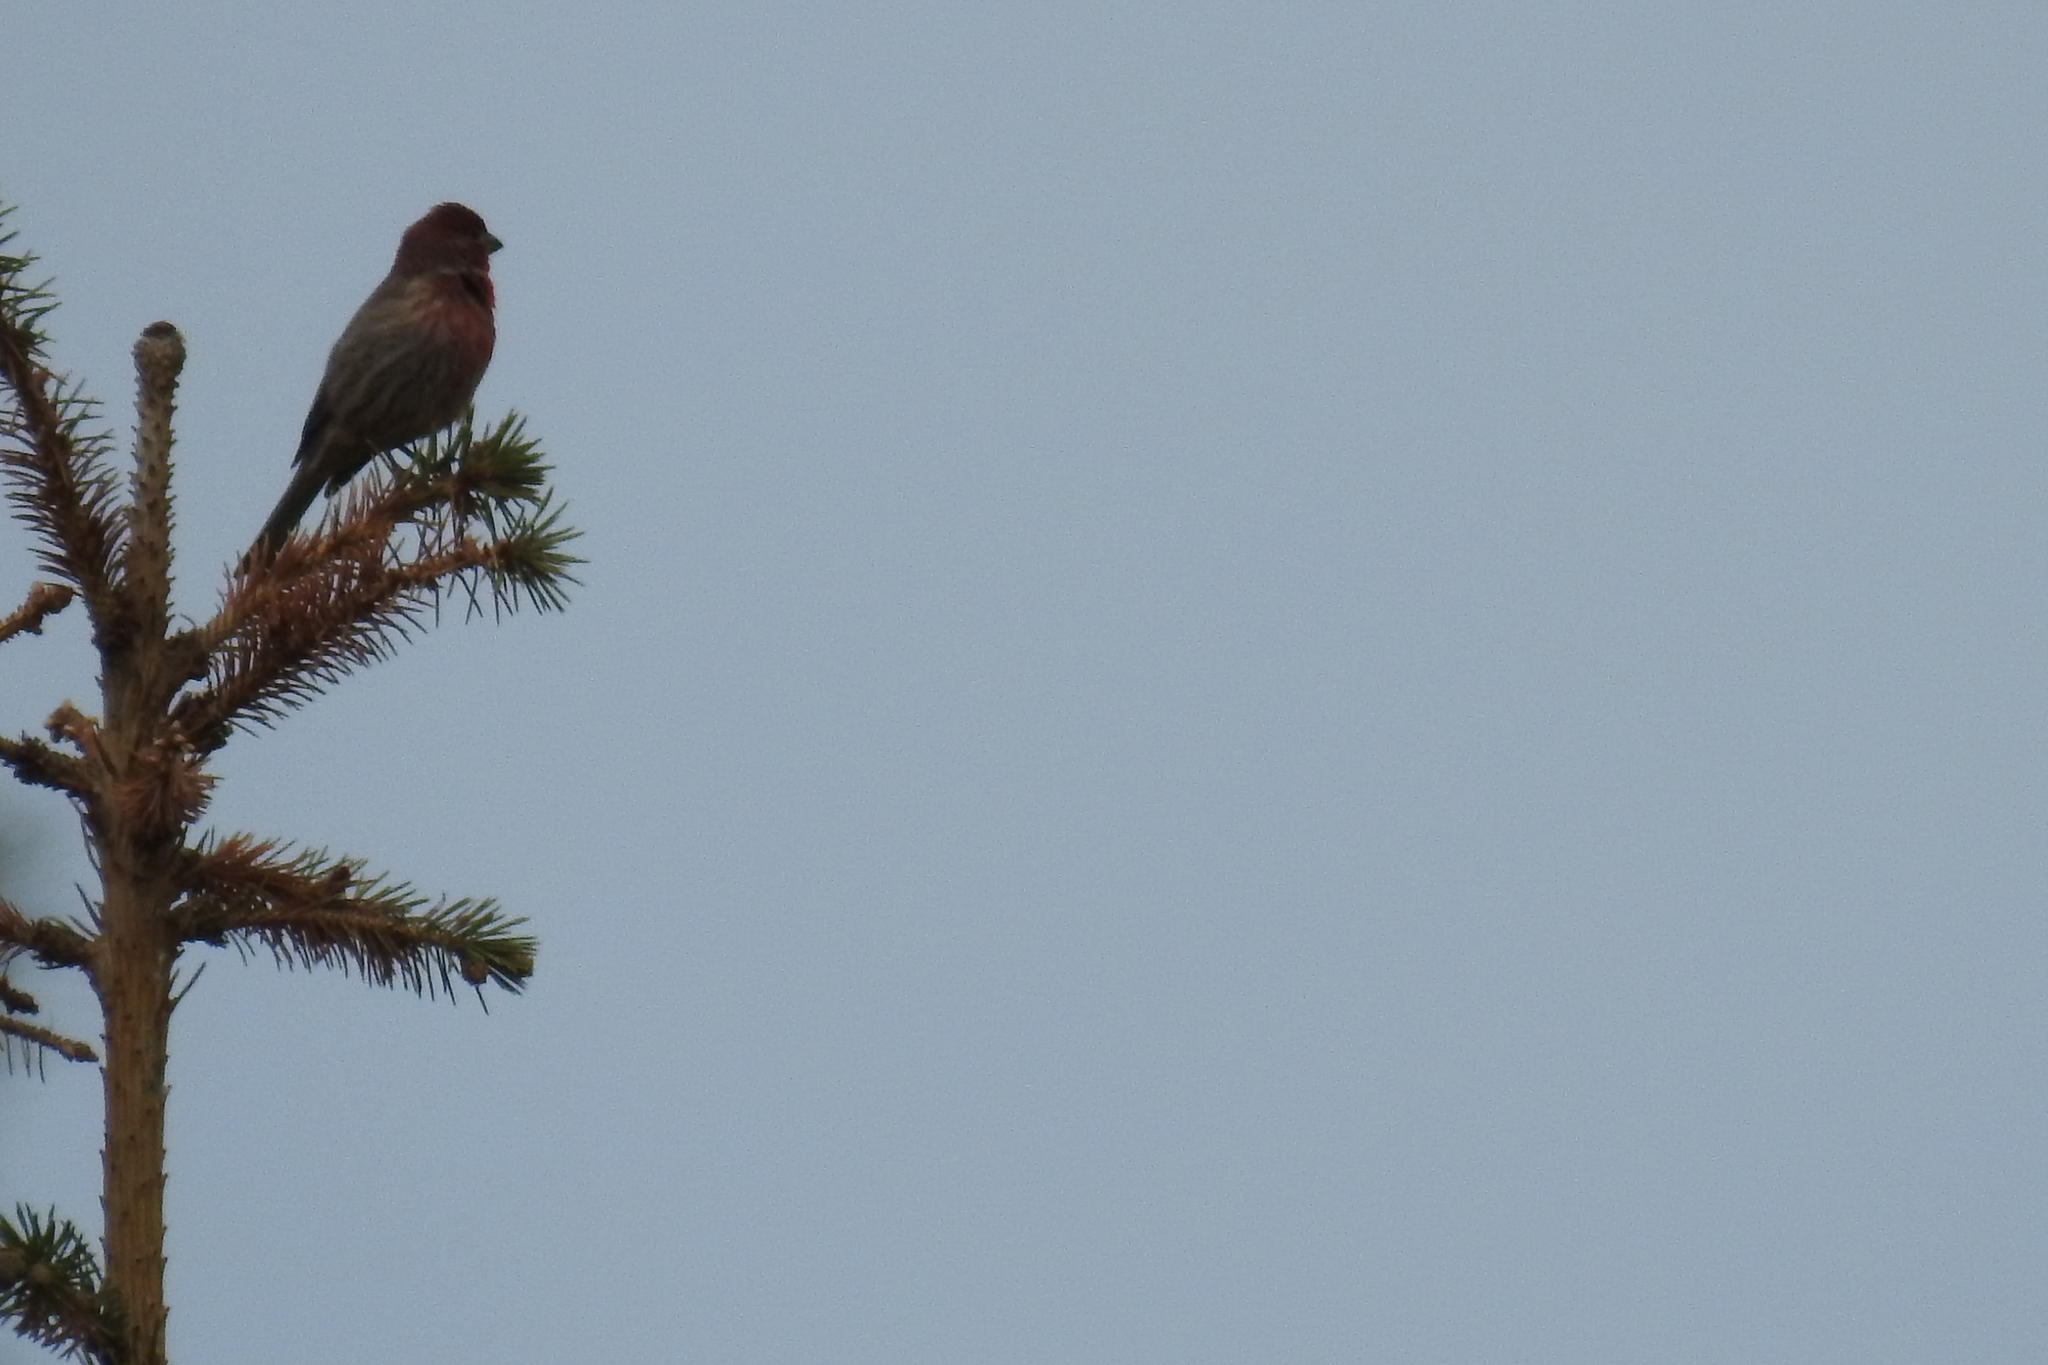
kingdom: Animalia
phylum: Chordata
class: Aves
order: Passeriformes
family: Fringillidae
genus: Haemorhous
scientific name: Haemorhous mexicanus
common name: House finch
